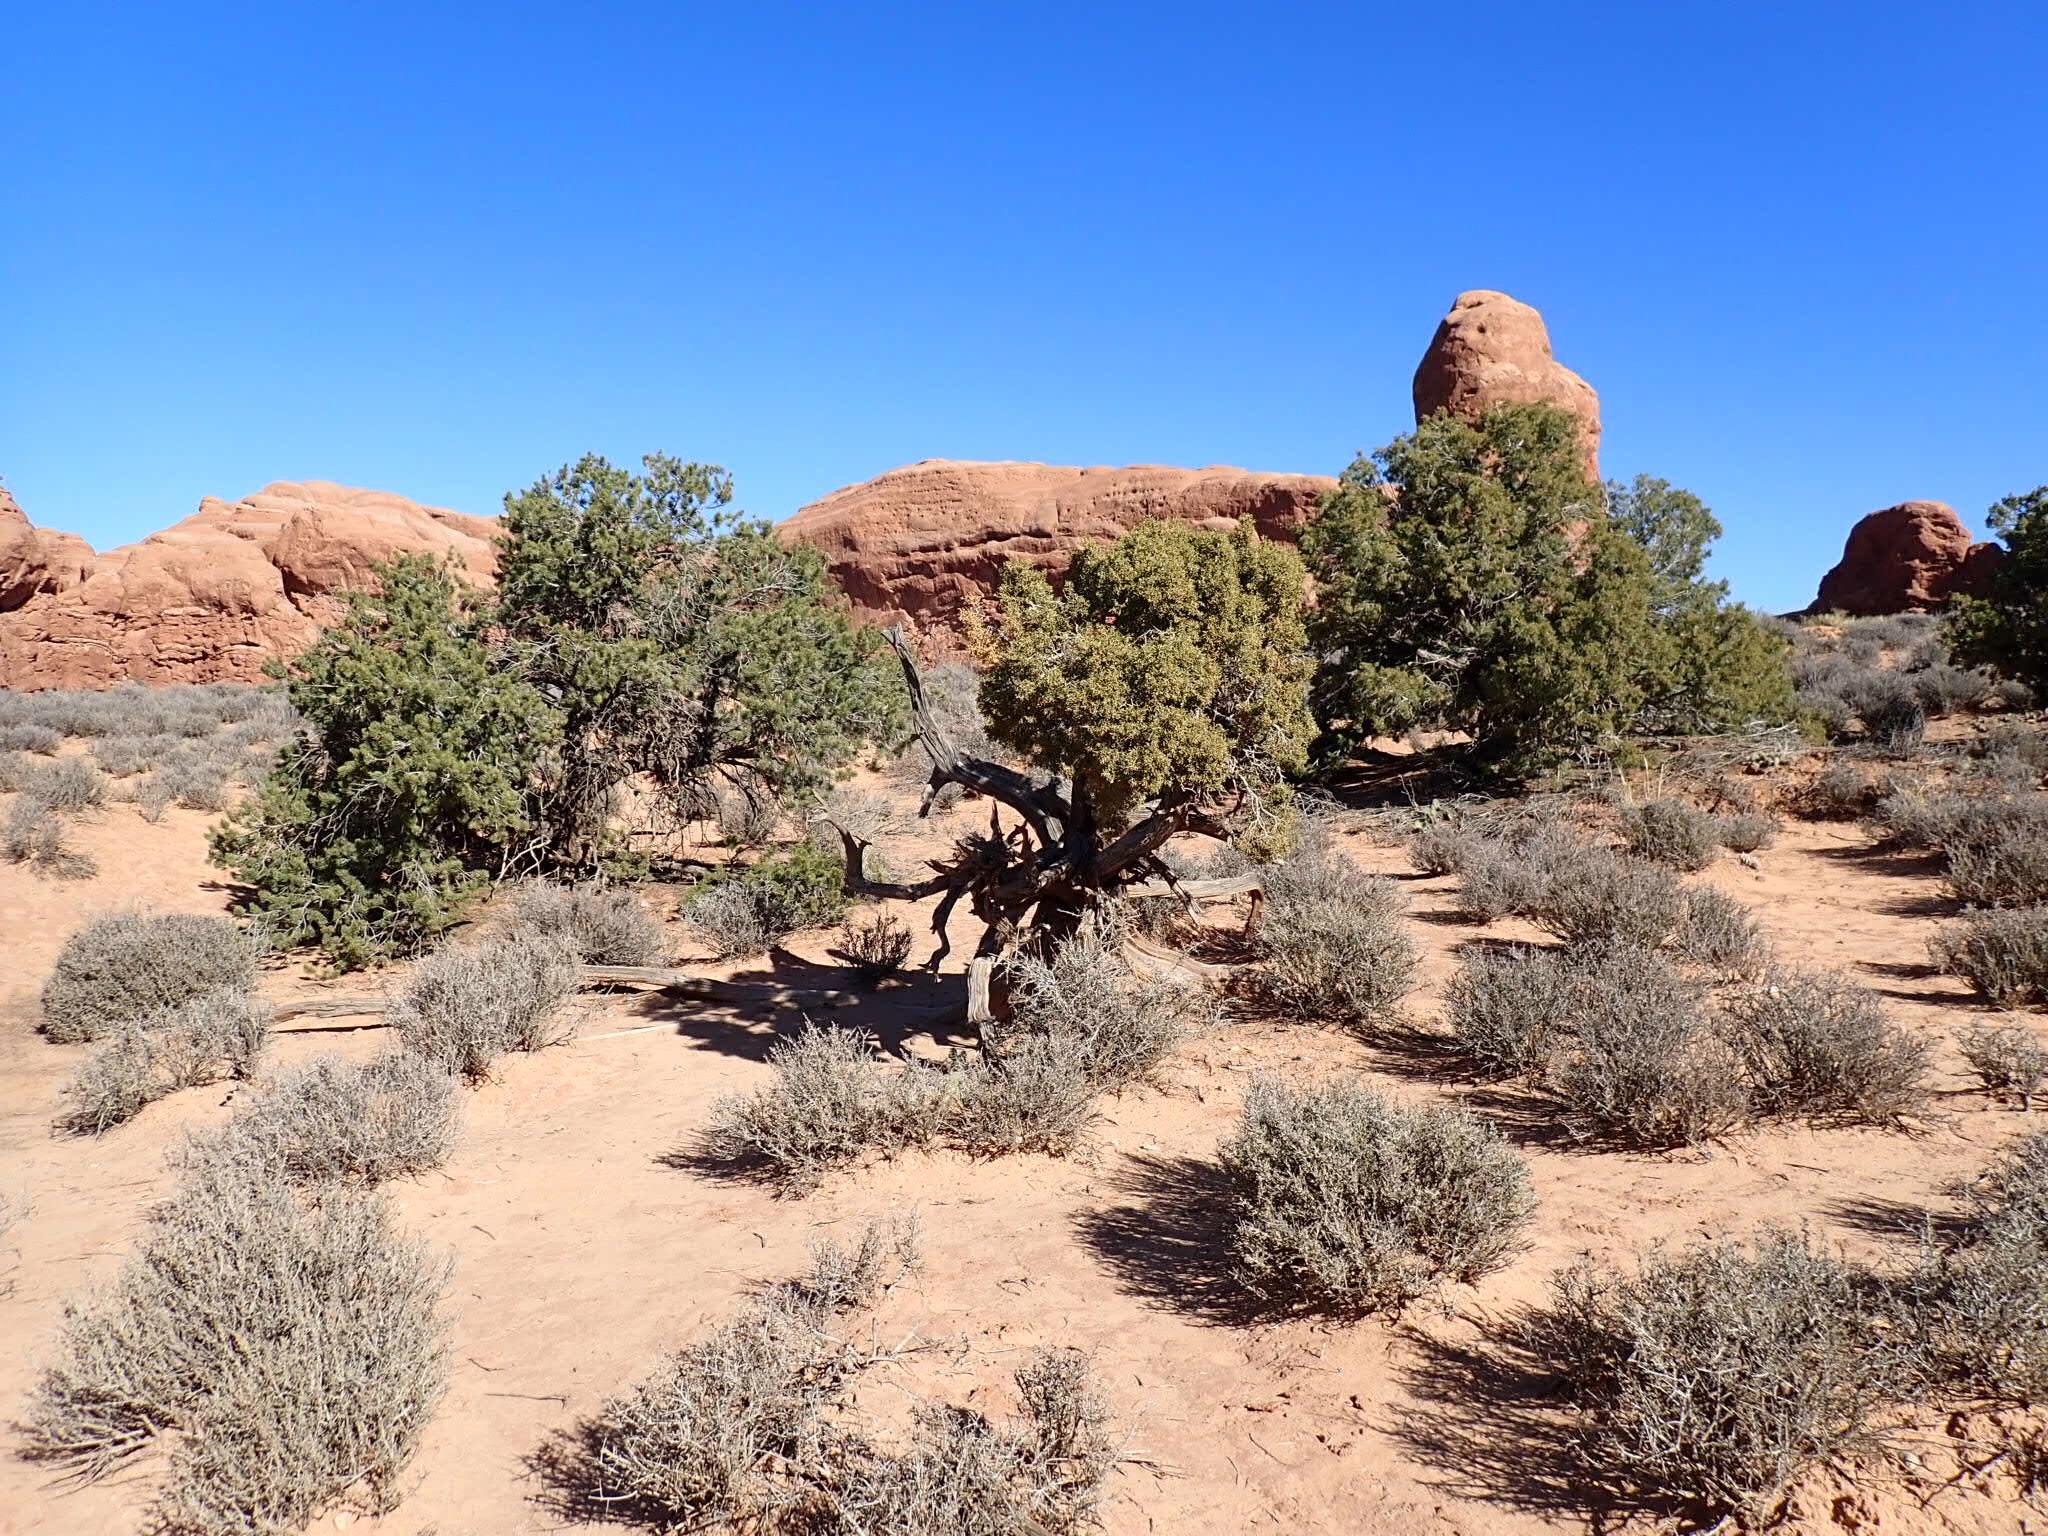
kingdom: Plantae
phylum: Tracheophyta
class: Pinopsida
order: Pinales
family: Pinaceae
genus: Pinus
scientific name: Pinus edulis
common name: Colorado pinyon
